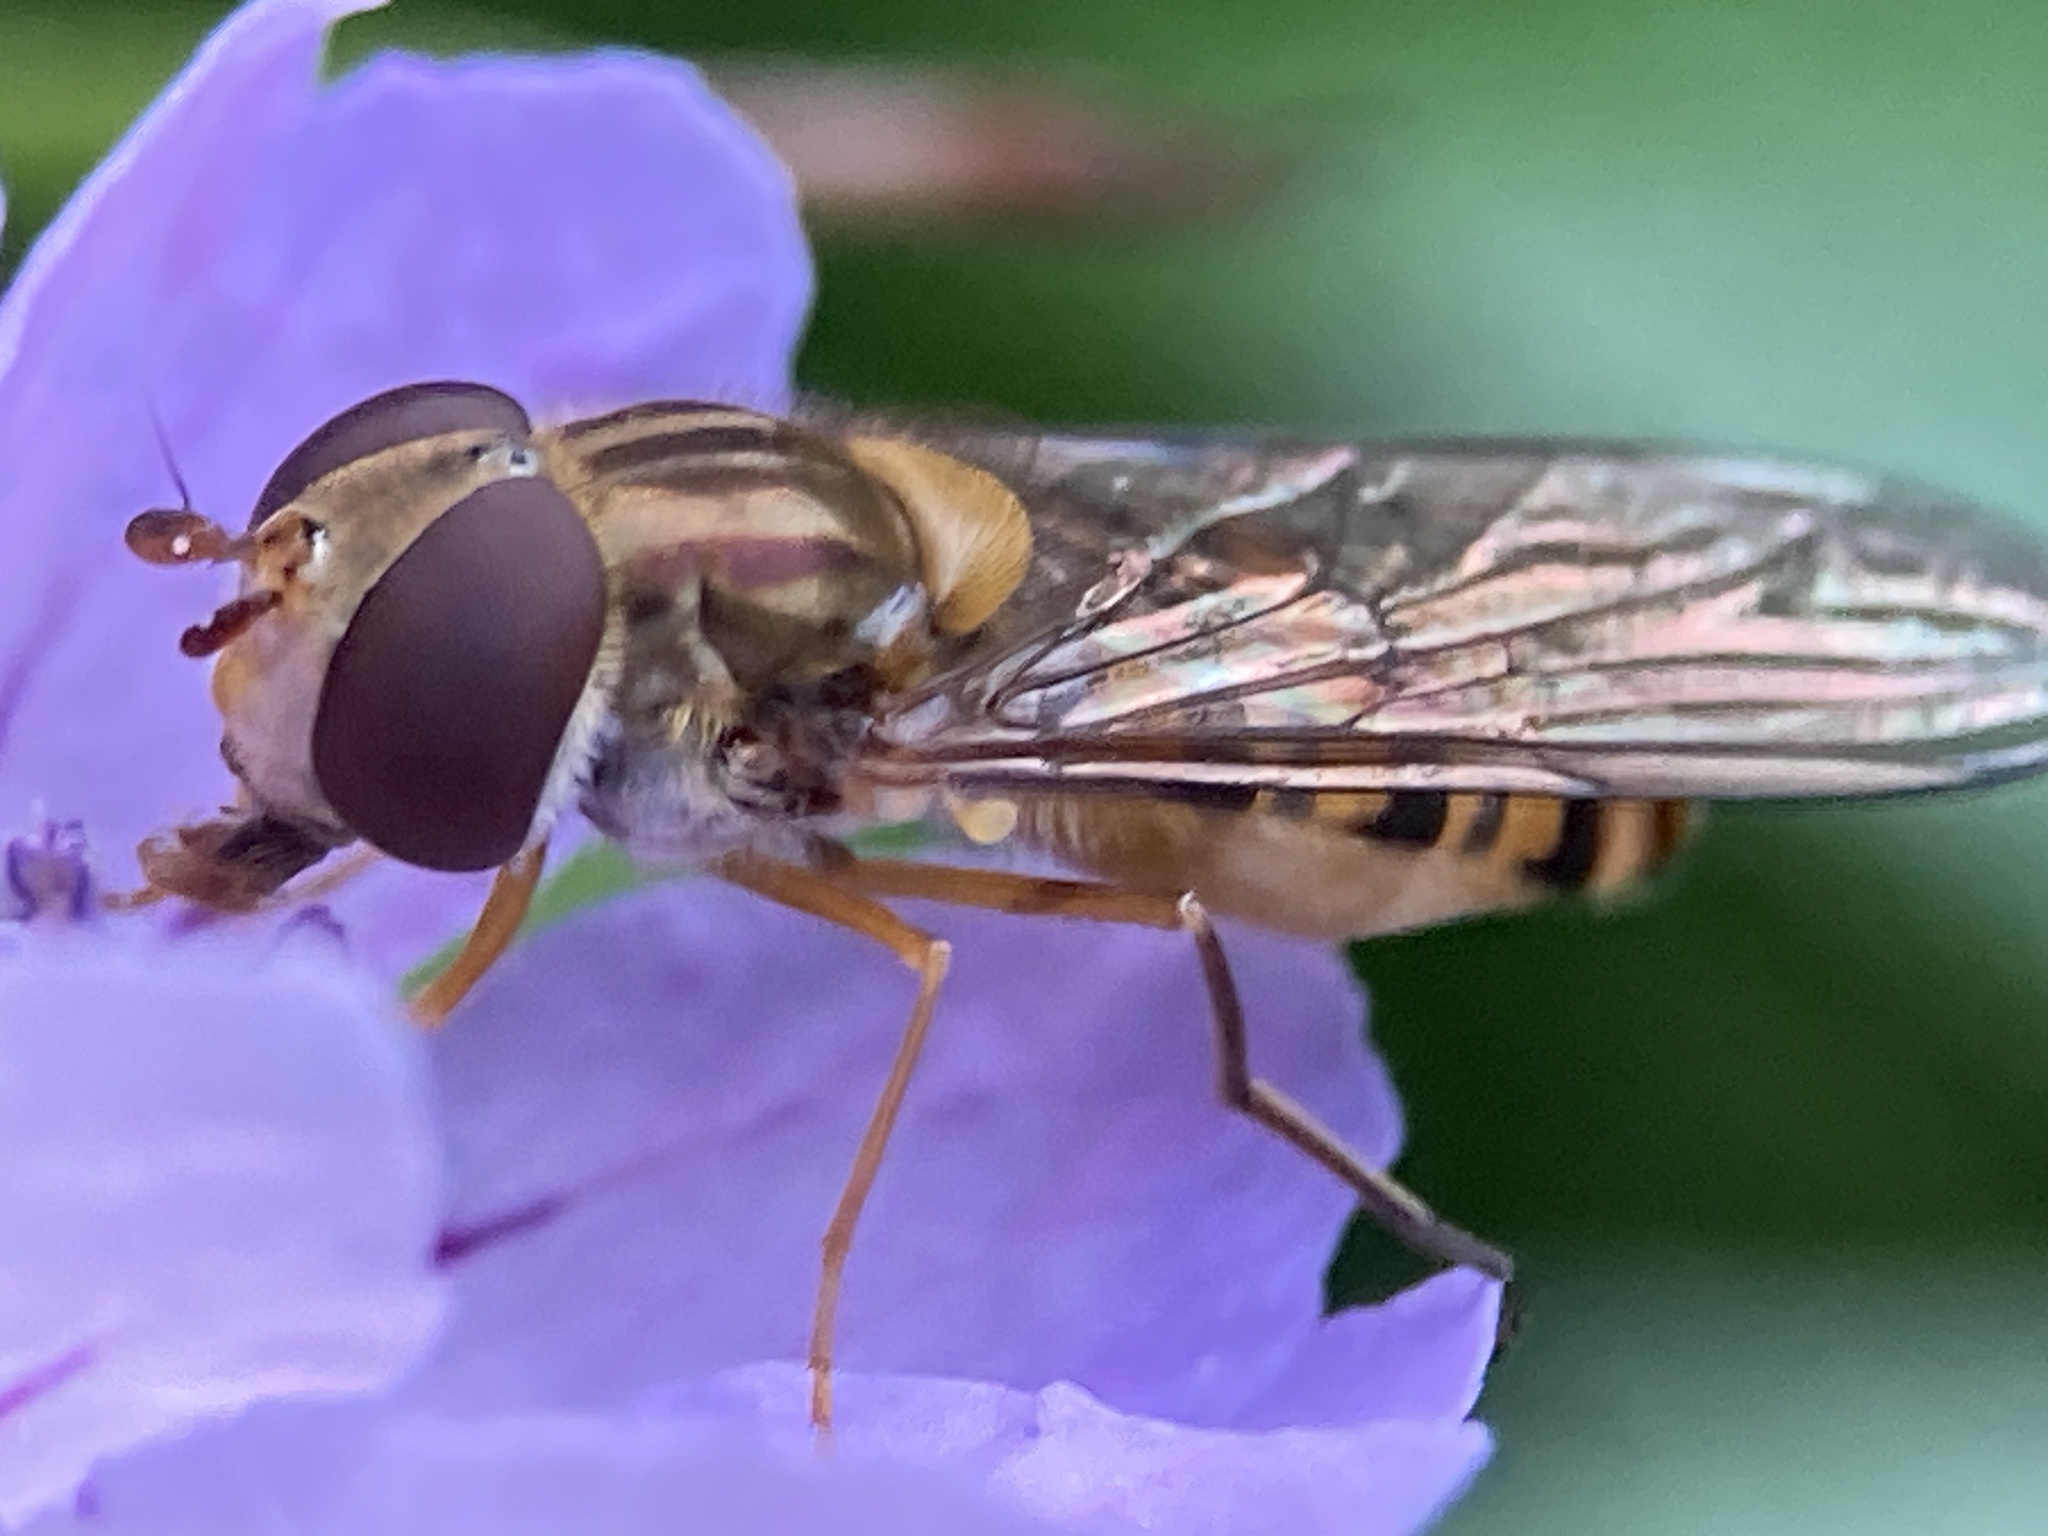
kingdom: Animalia
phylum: Arthropoda
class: Insecta
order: Diptera
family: Syrphidae
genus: Episyrphus
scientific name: Episyrphus balteatus
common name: Marmalade hoverfly
